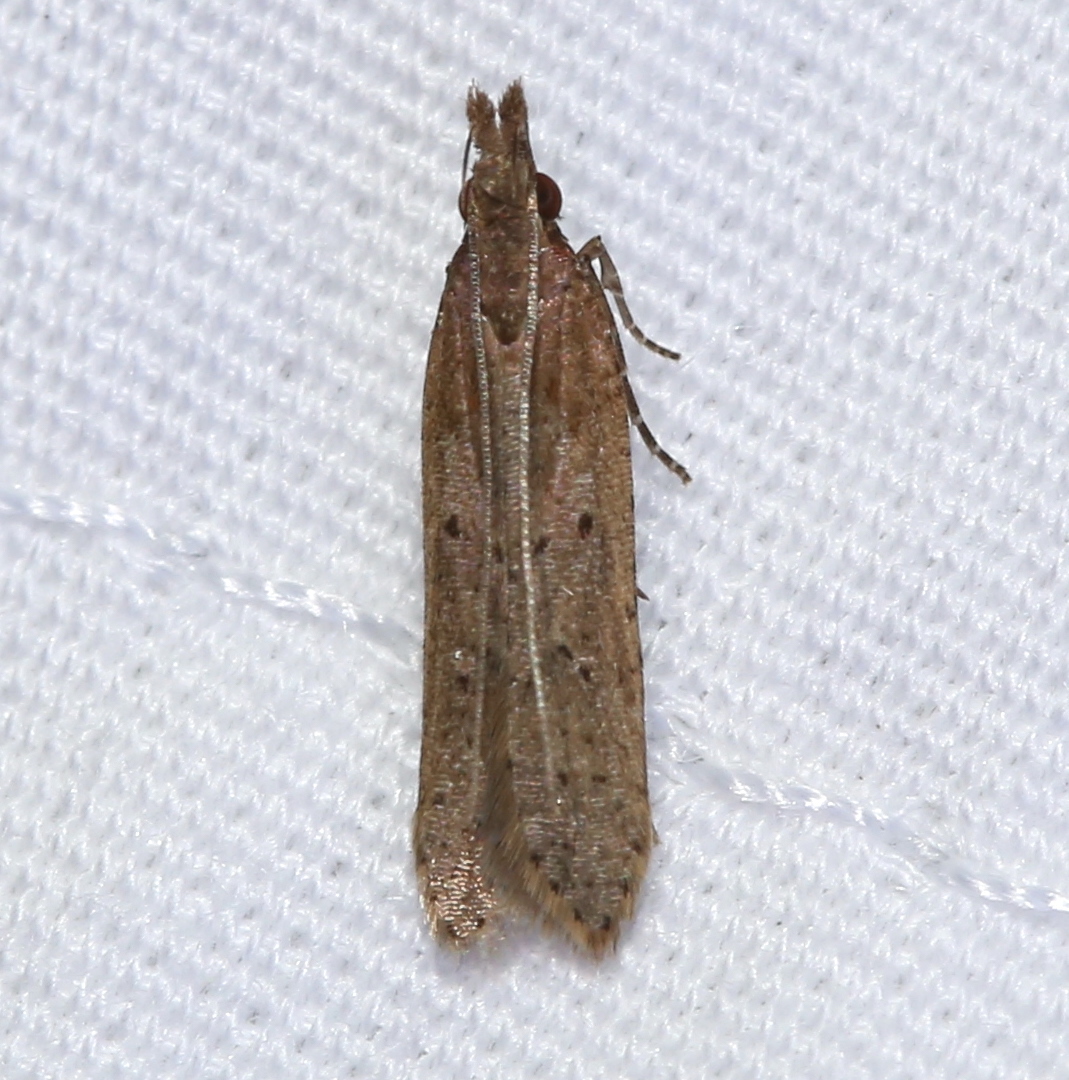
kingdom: Animalia
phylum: Arthropoda
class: Insecta
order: Lepidoptera
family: Gelechiidae
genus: Dichomeris
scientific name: Dichomeris ligulella
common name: Moth
